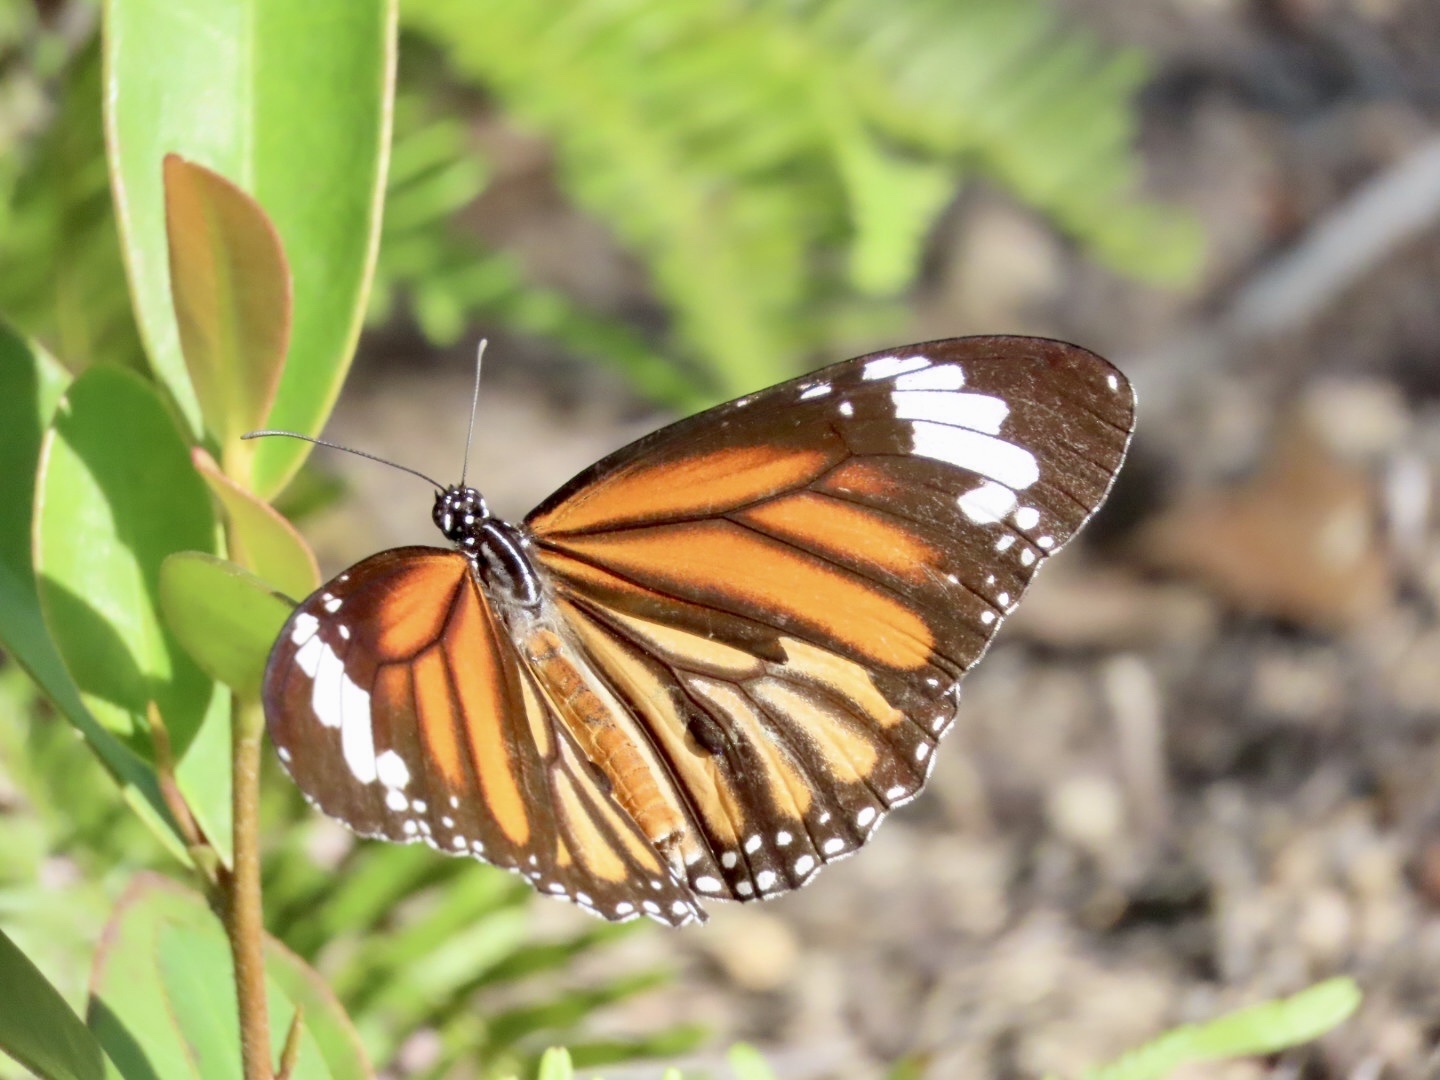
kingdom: Animalia
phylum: Arthropoda
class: Insecta
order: Lepidoptera
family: Nymphalidae
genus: Danaus
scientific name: Danaus genutia
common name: Common tiger butterfly
